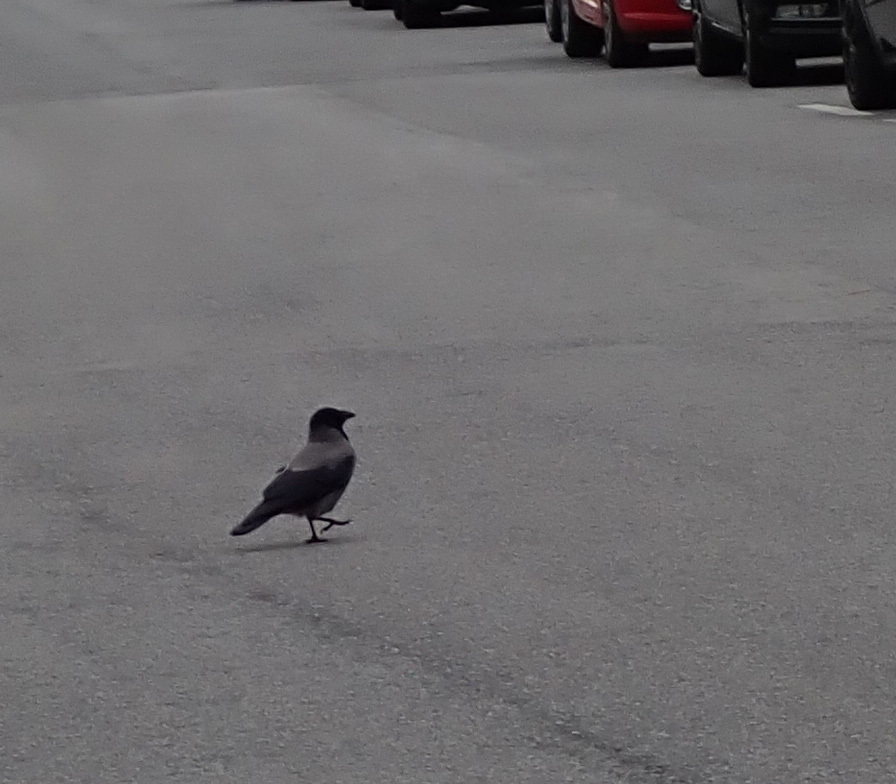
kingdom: Animalia
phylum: Chordata
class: Aves
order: Passeriformes
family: Corvidae
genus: Corvus
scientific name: Corvus cornix
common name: Hooded crow
